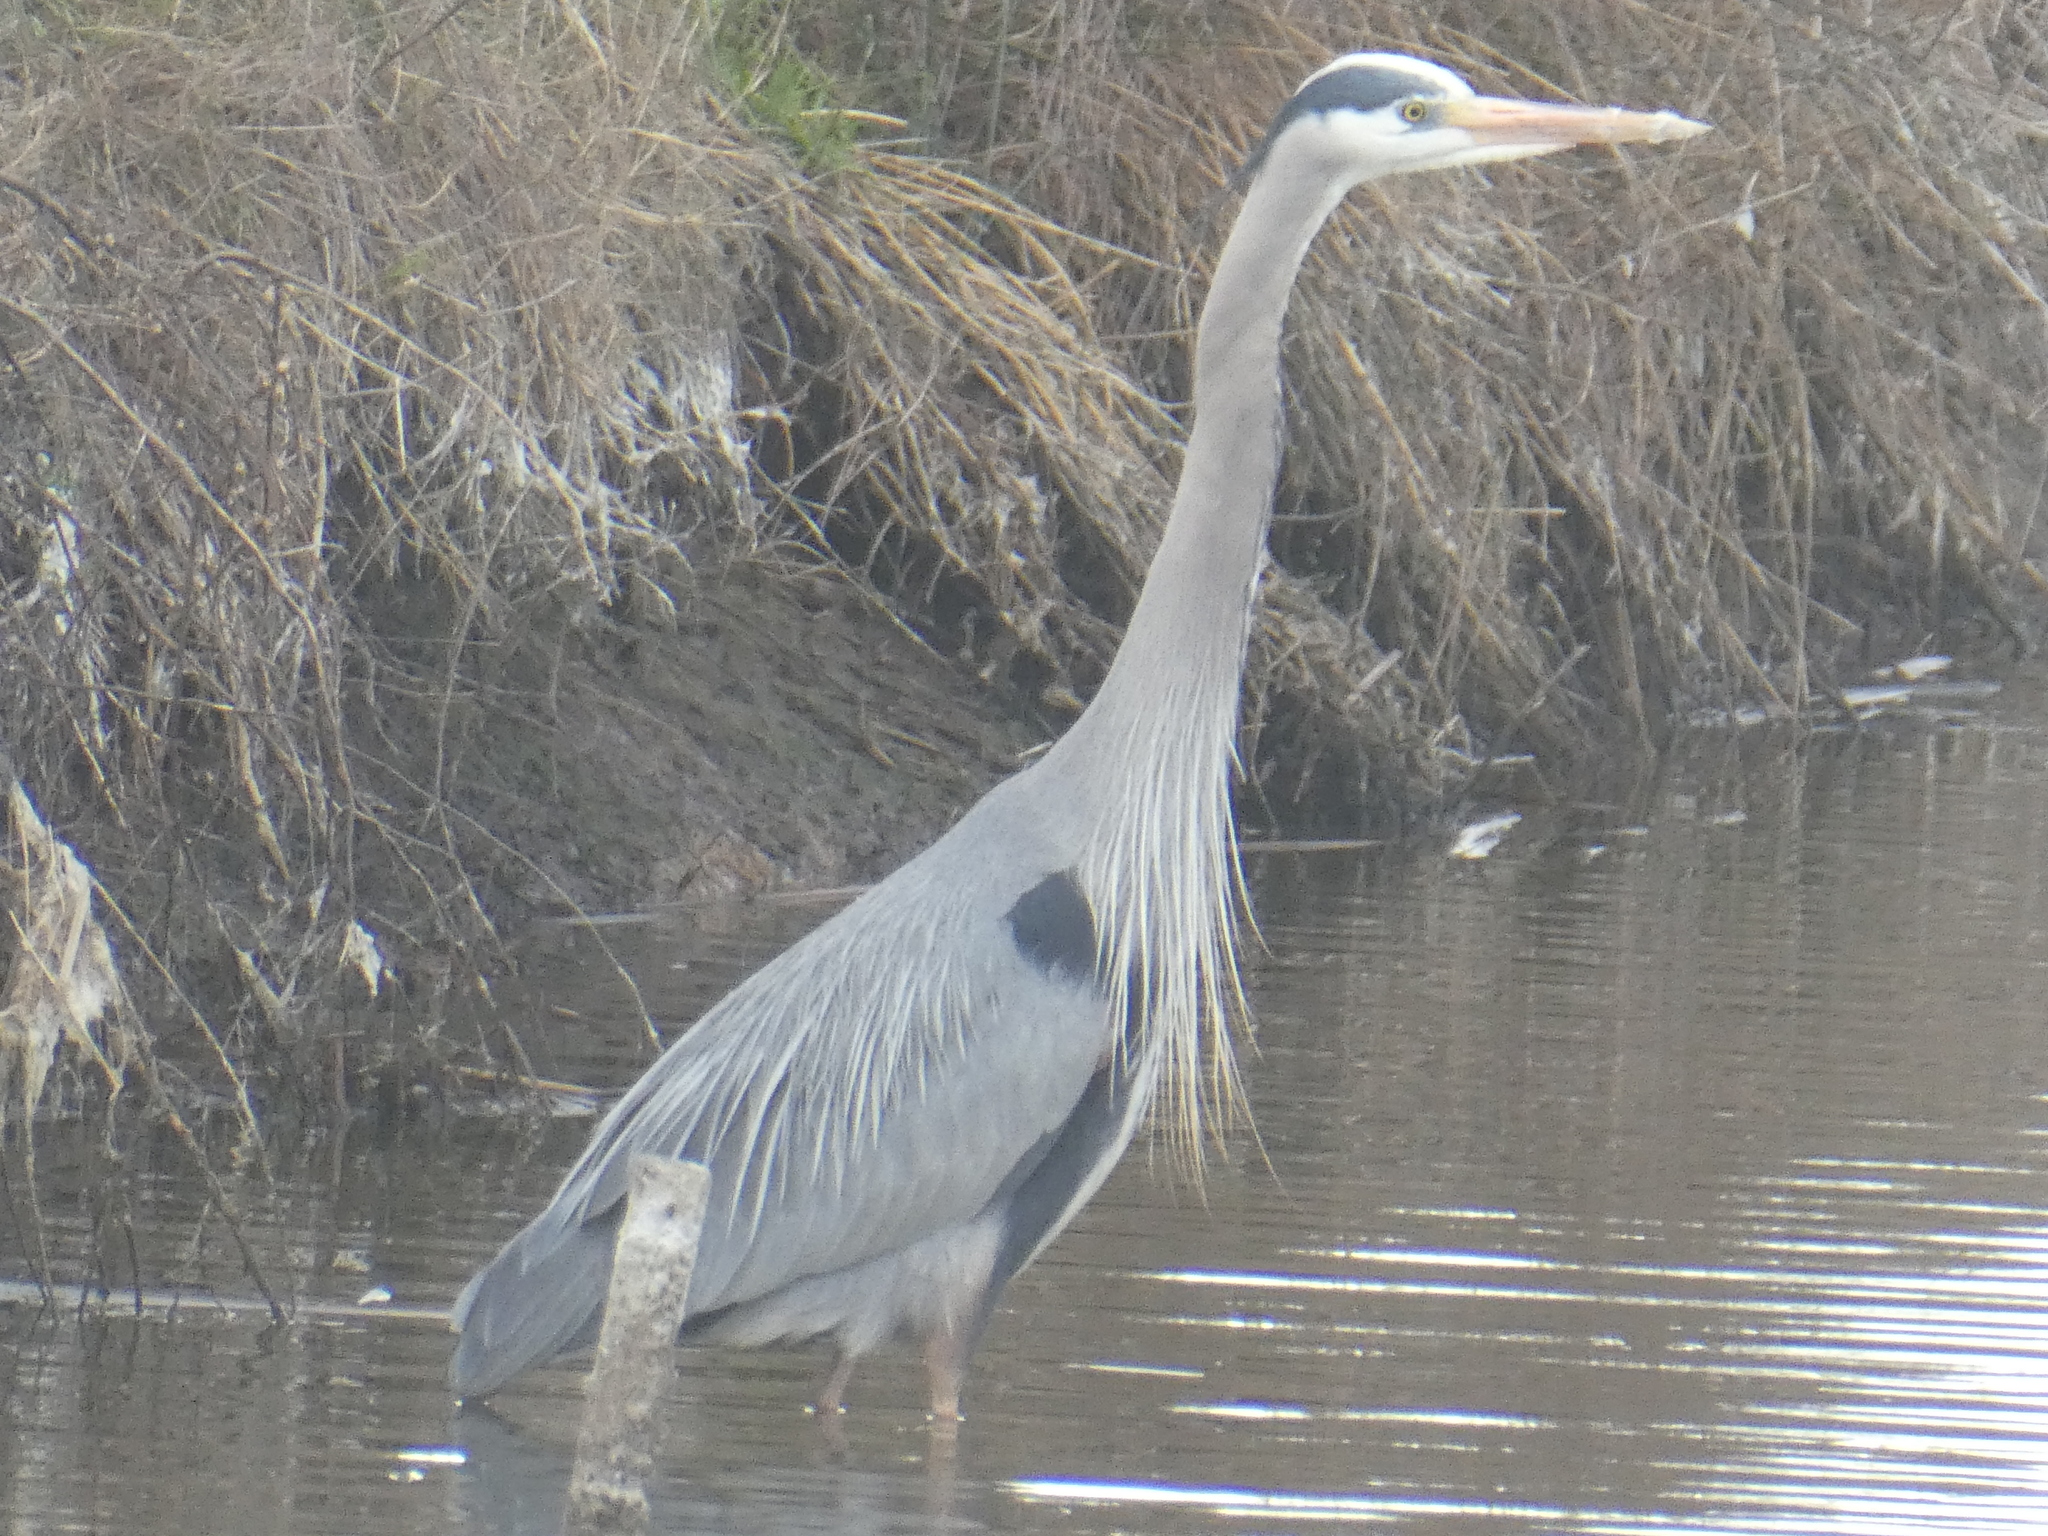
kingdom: Animalia
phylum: Chordata
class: Aves
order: Pelecaniformes
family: Ardeidae
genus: Ardea
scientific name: Ardea herodias
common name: Great blue heron
